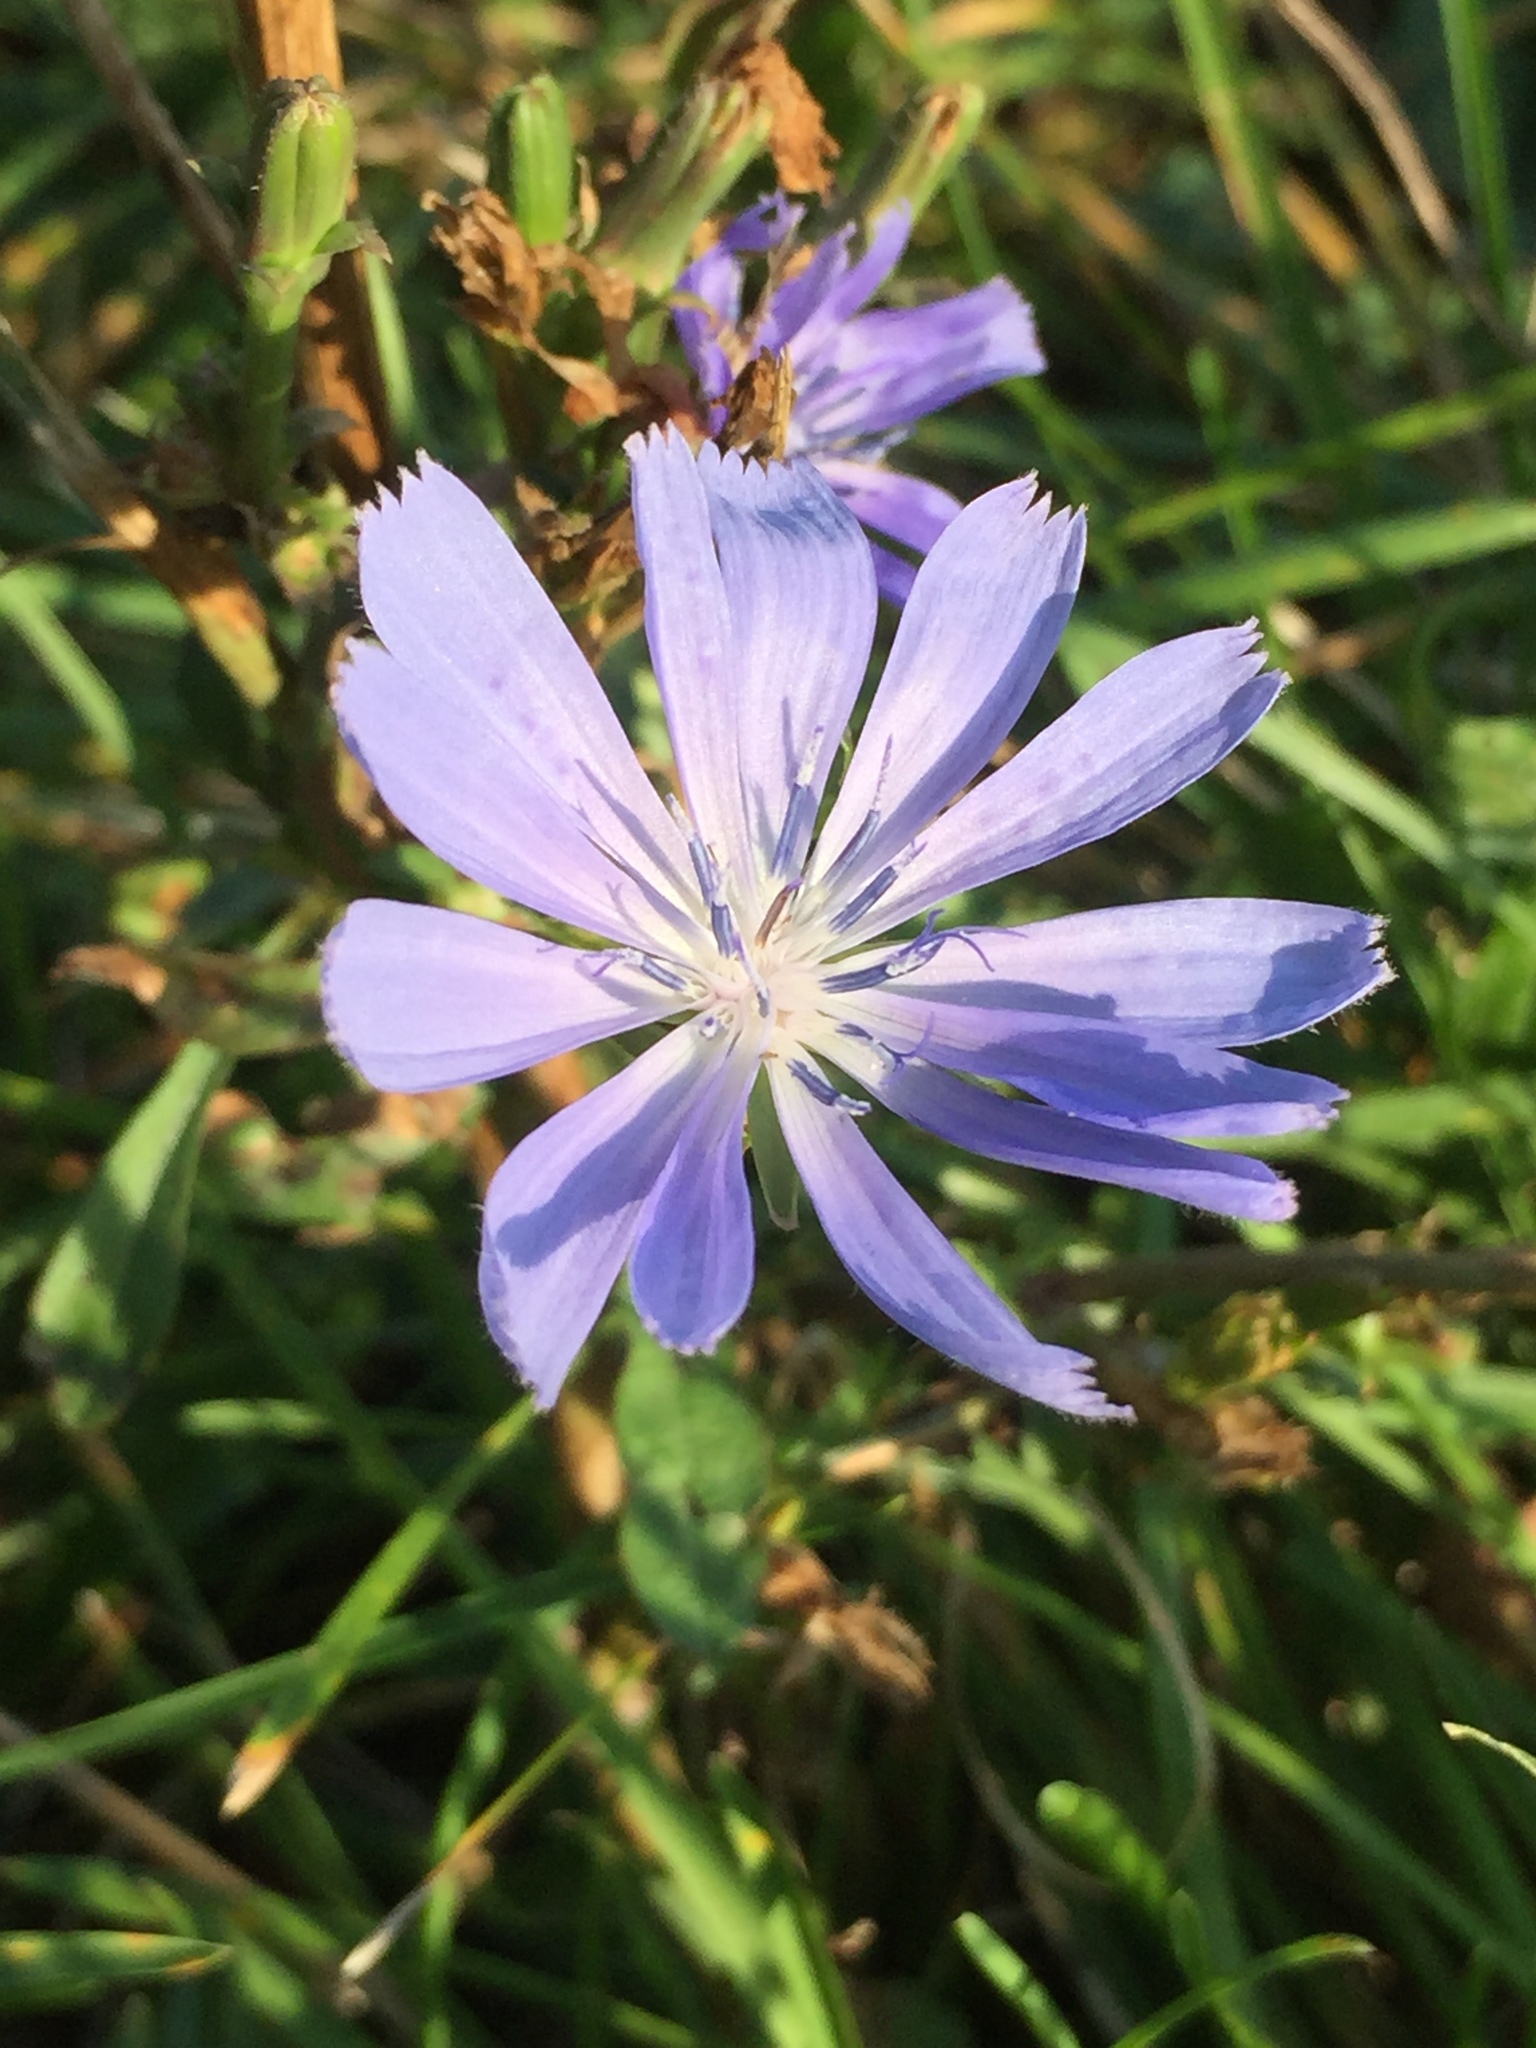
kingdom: Plantae
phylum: Tracheophyta
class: Magnoliopsida
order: Asterales
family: Asteraceae
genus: Cichorium
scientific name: Cichorium intybus
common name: Chicory
